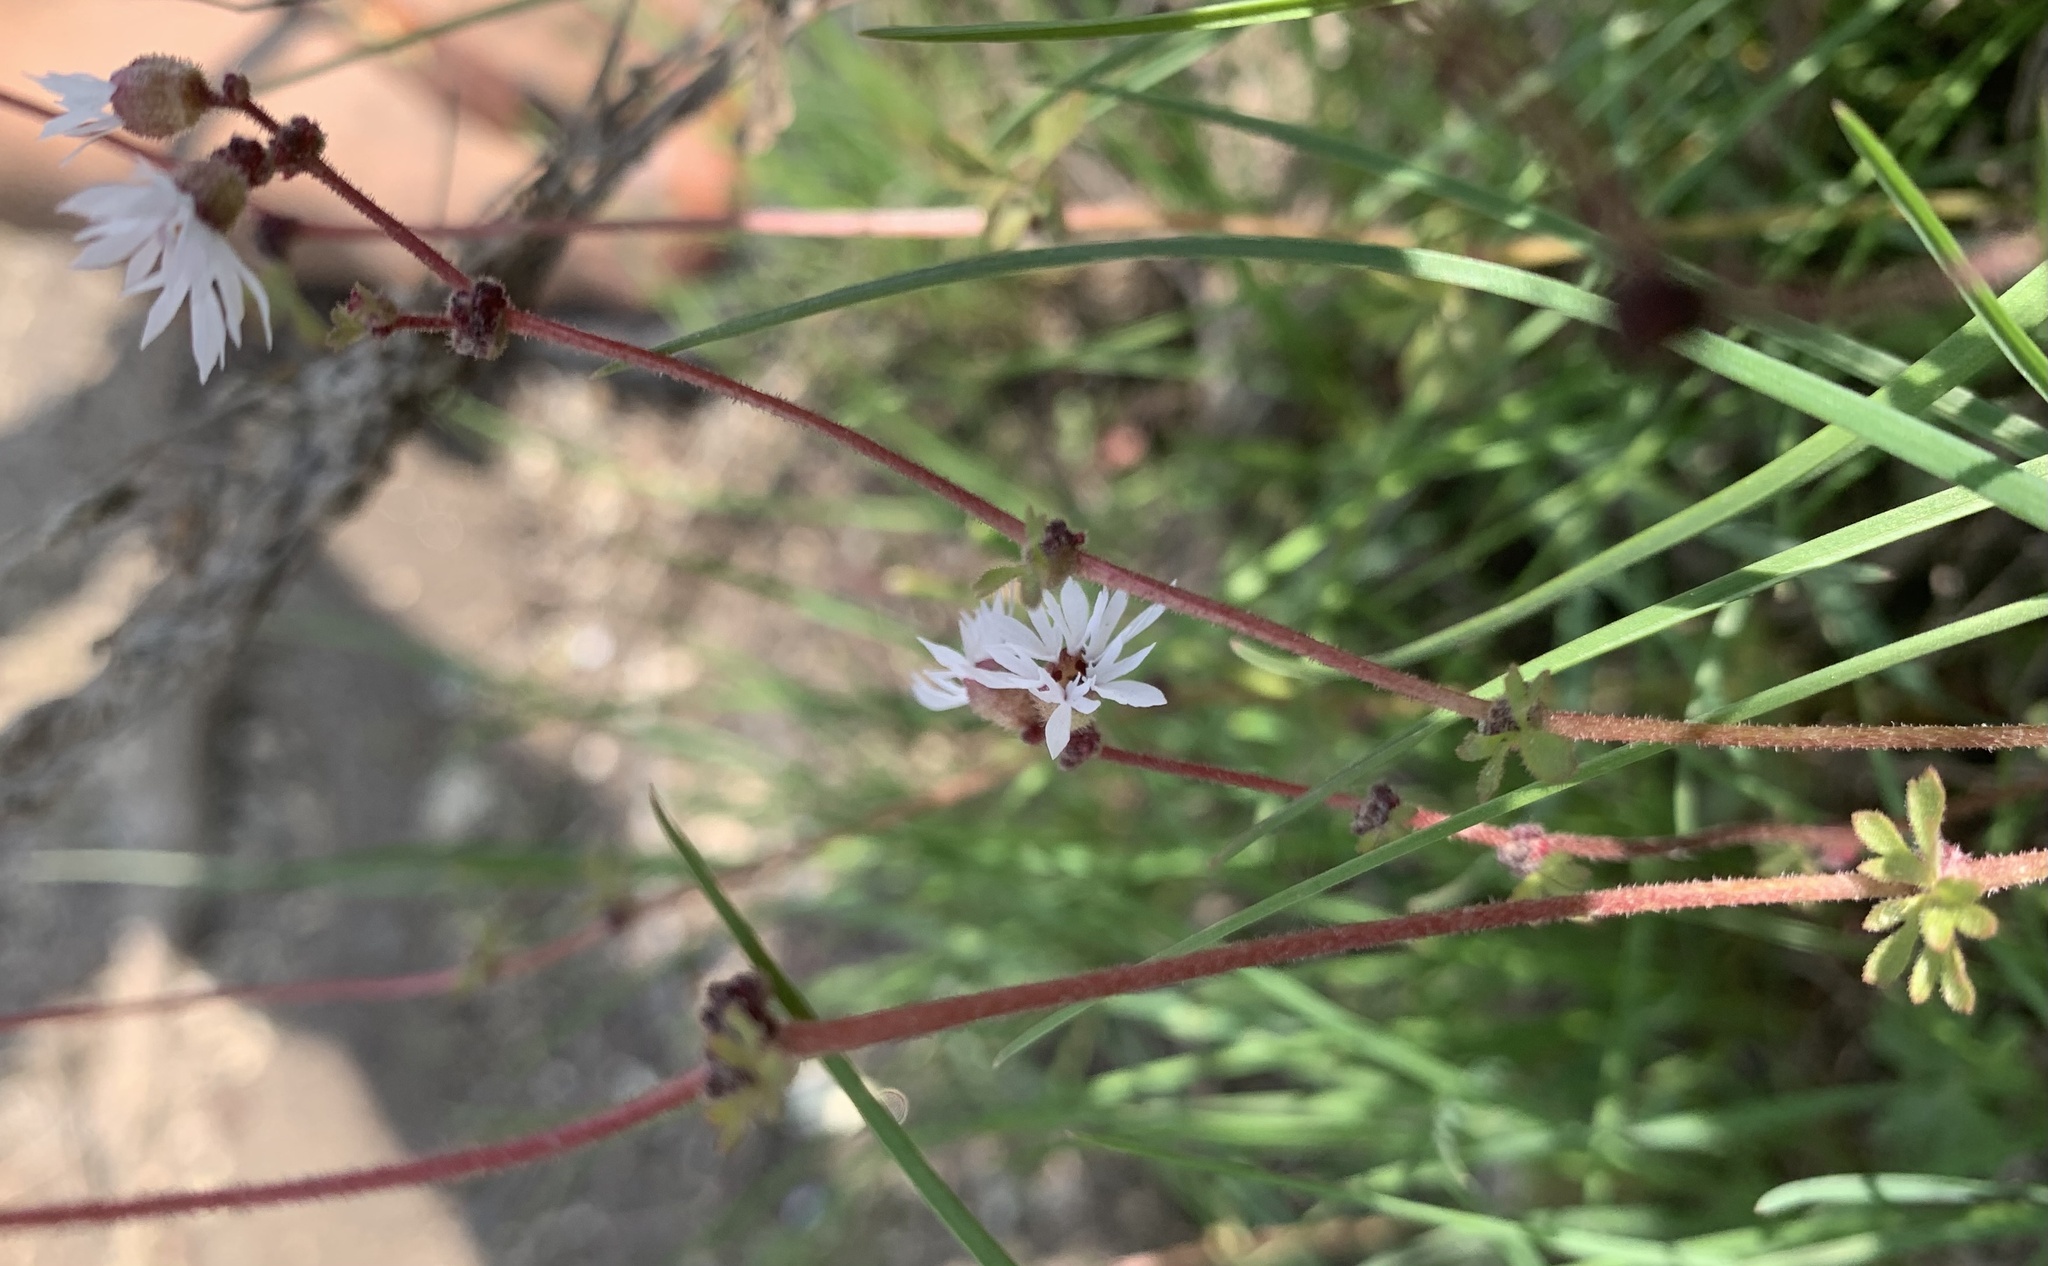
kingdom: Plantae
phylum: Tracheophyta
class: Magnoliopsida
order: Saxifragales
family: Saxifragaceae
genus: Lithophragma
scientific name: Lithophragma glabrum
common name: Bulbous prairie-star
